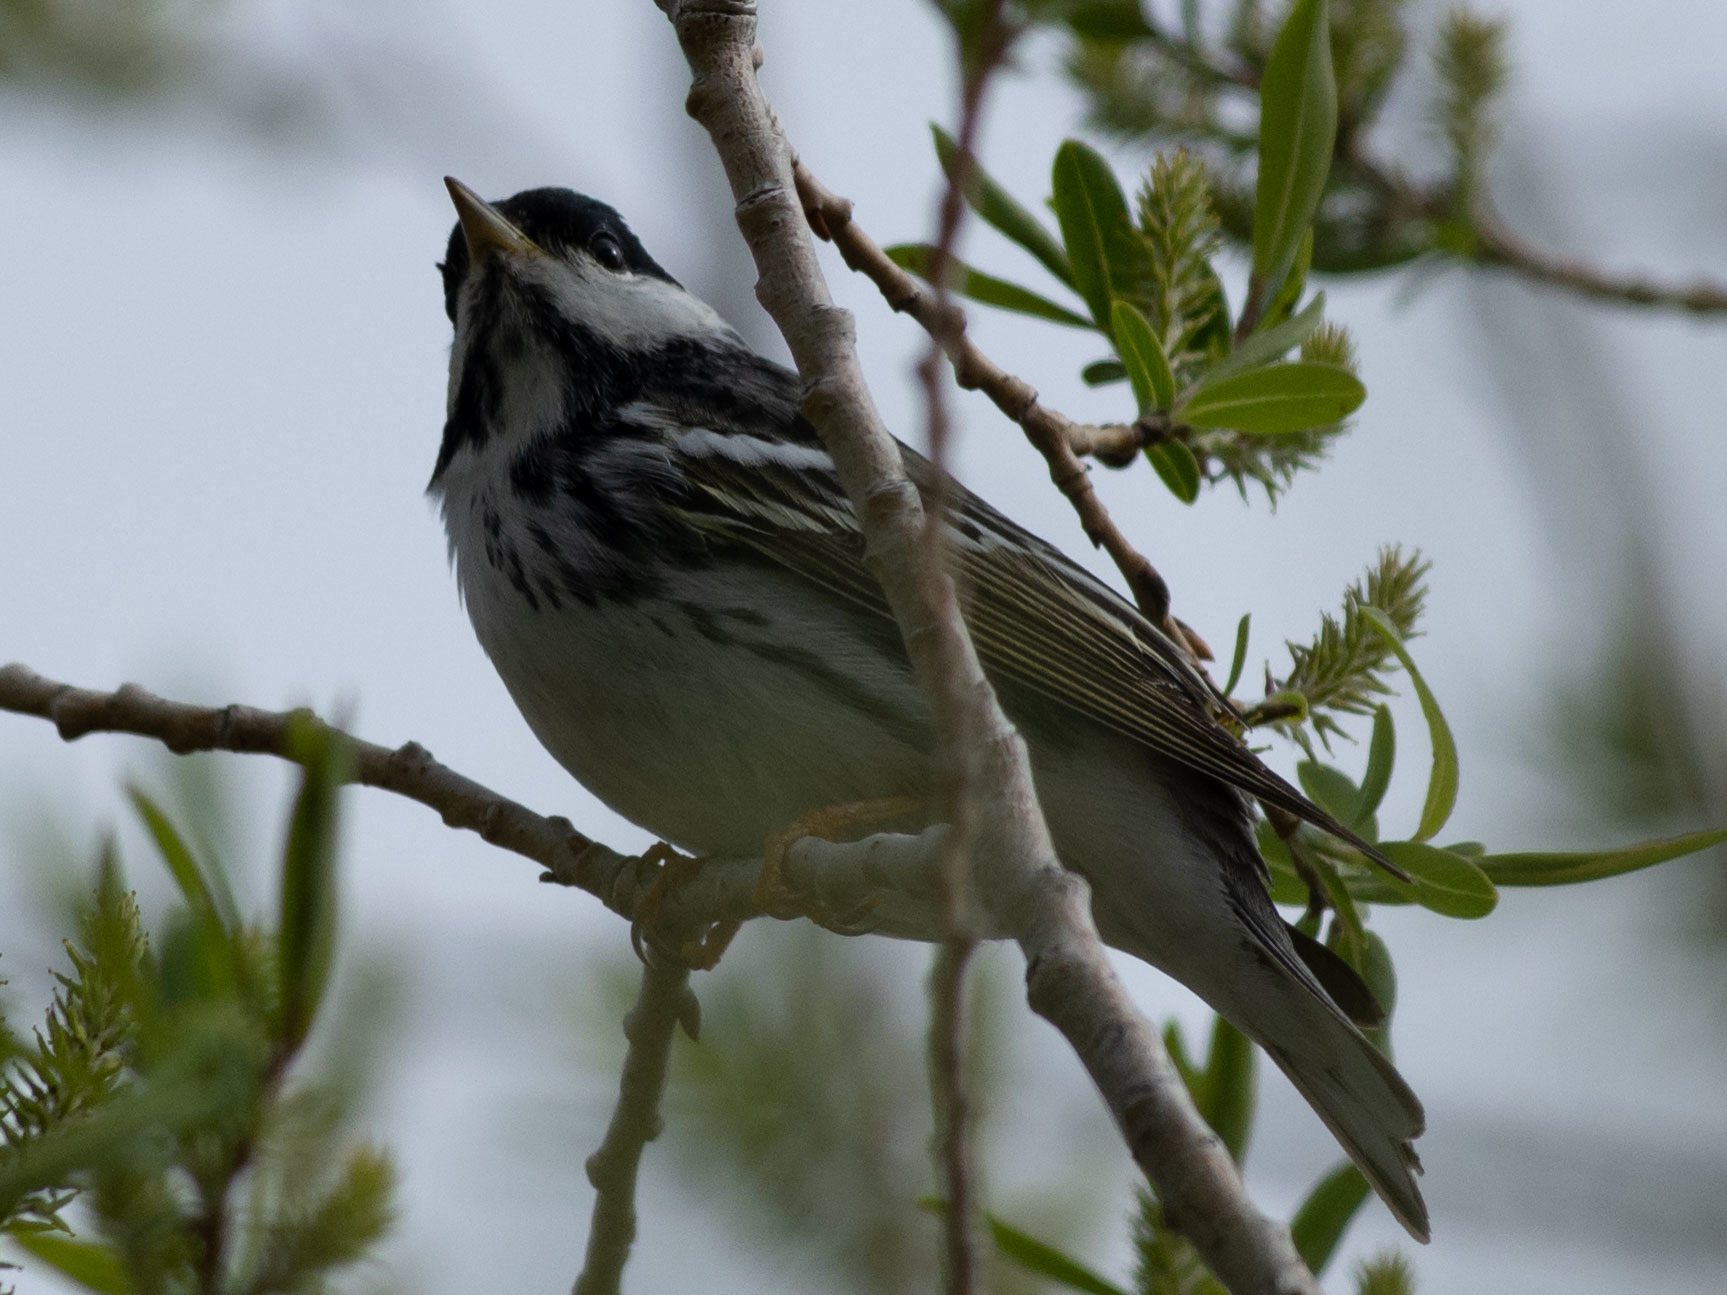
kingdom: Animalia
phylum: Chordata
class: Aves
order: Passeriformes
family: Parulidae
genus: Setophaga
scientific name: Setophaga striata
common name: Blackpoll warbler
